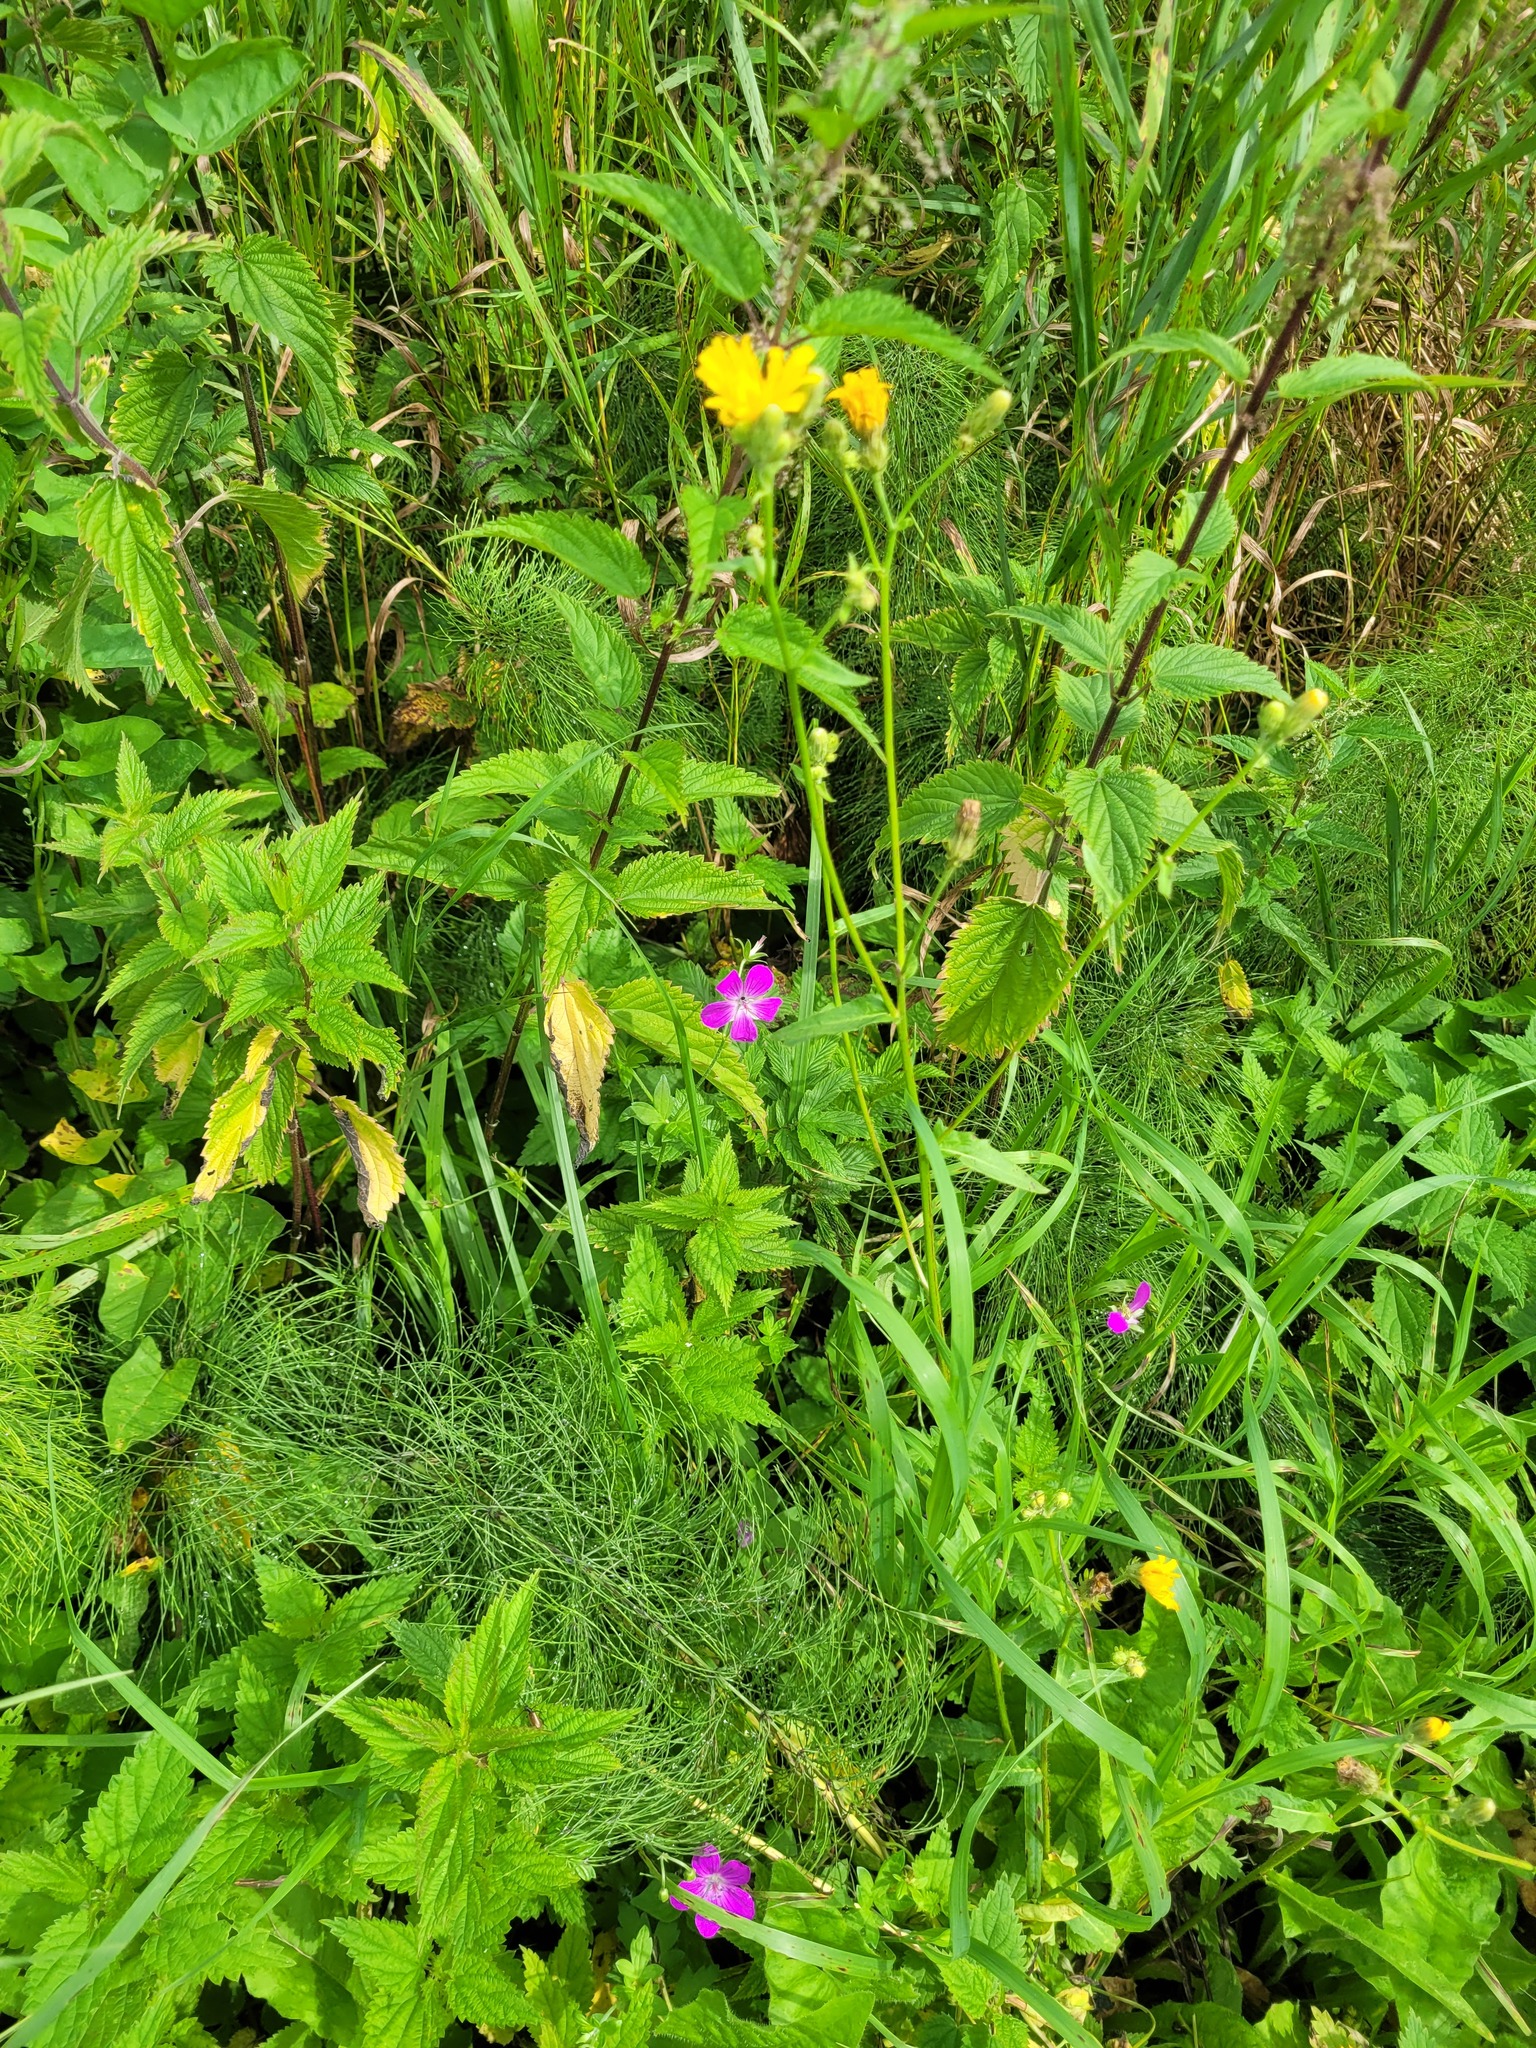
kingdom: Plantae
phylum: Tracheophyta
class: Magnoliopsida
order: Geraniales
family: Geraniaceae
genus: Geranium
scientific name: Geranium palustre
